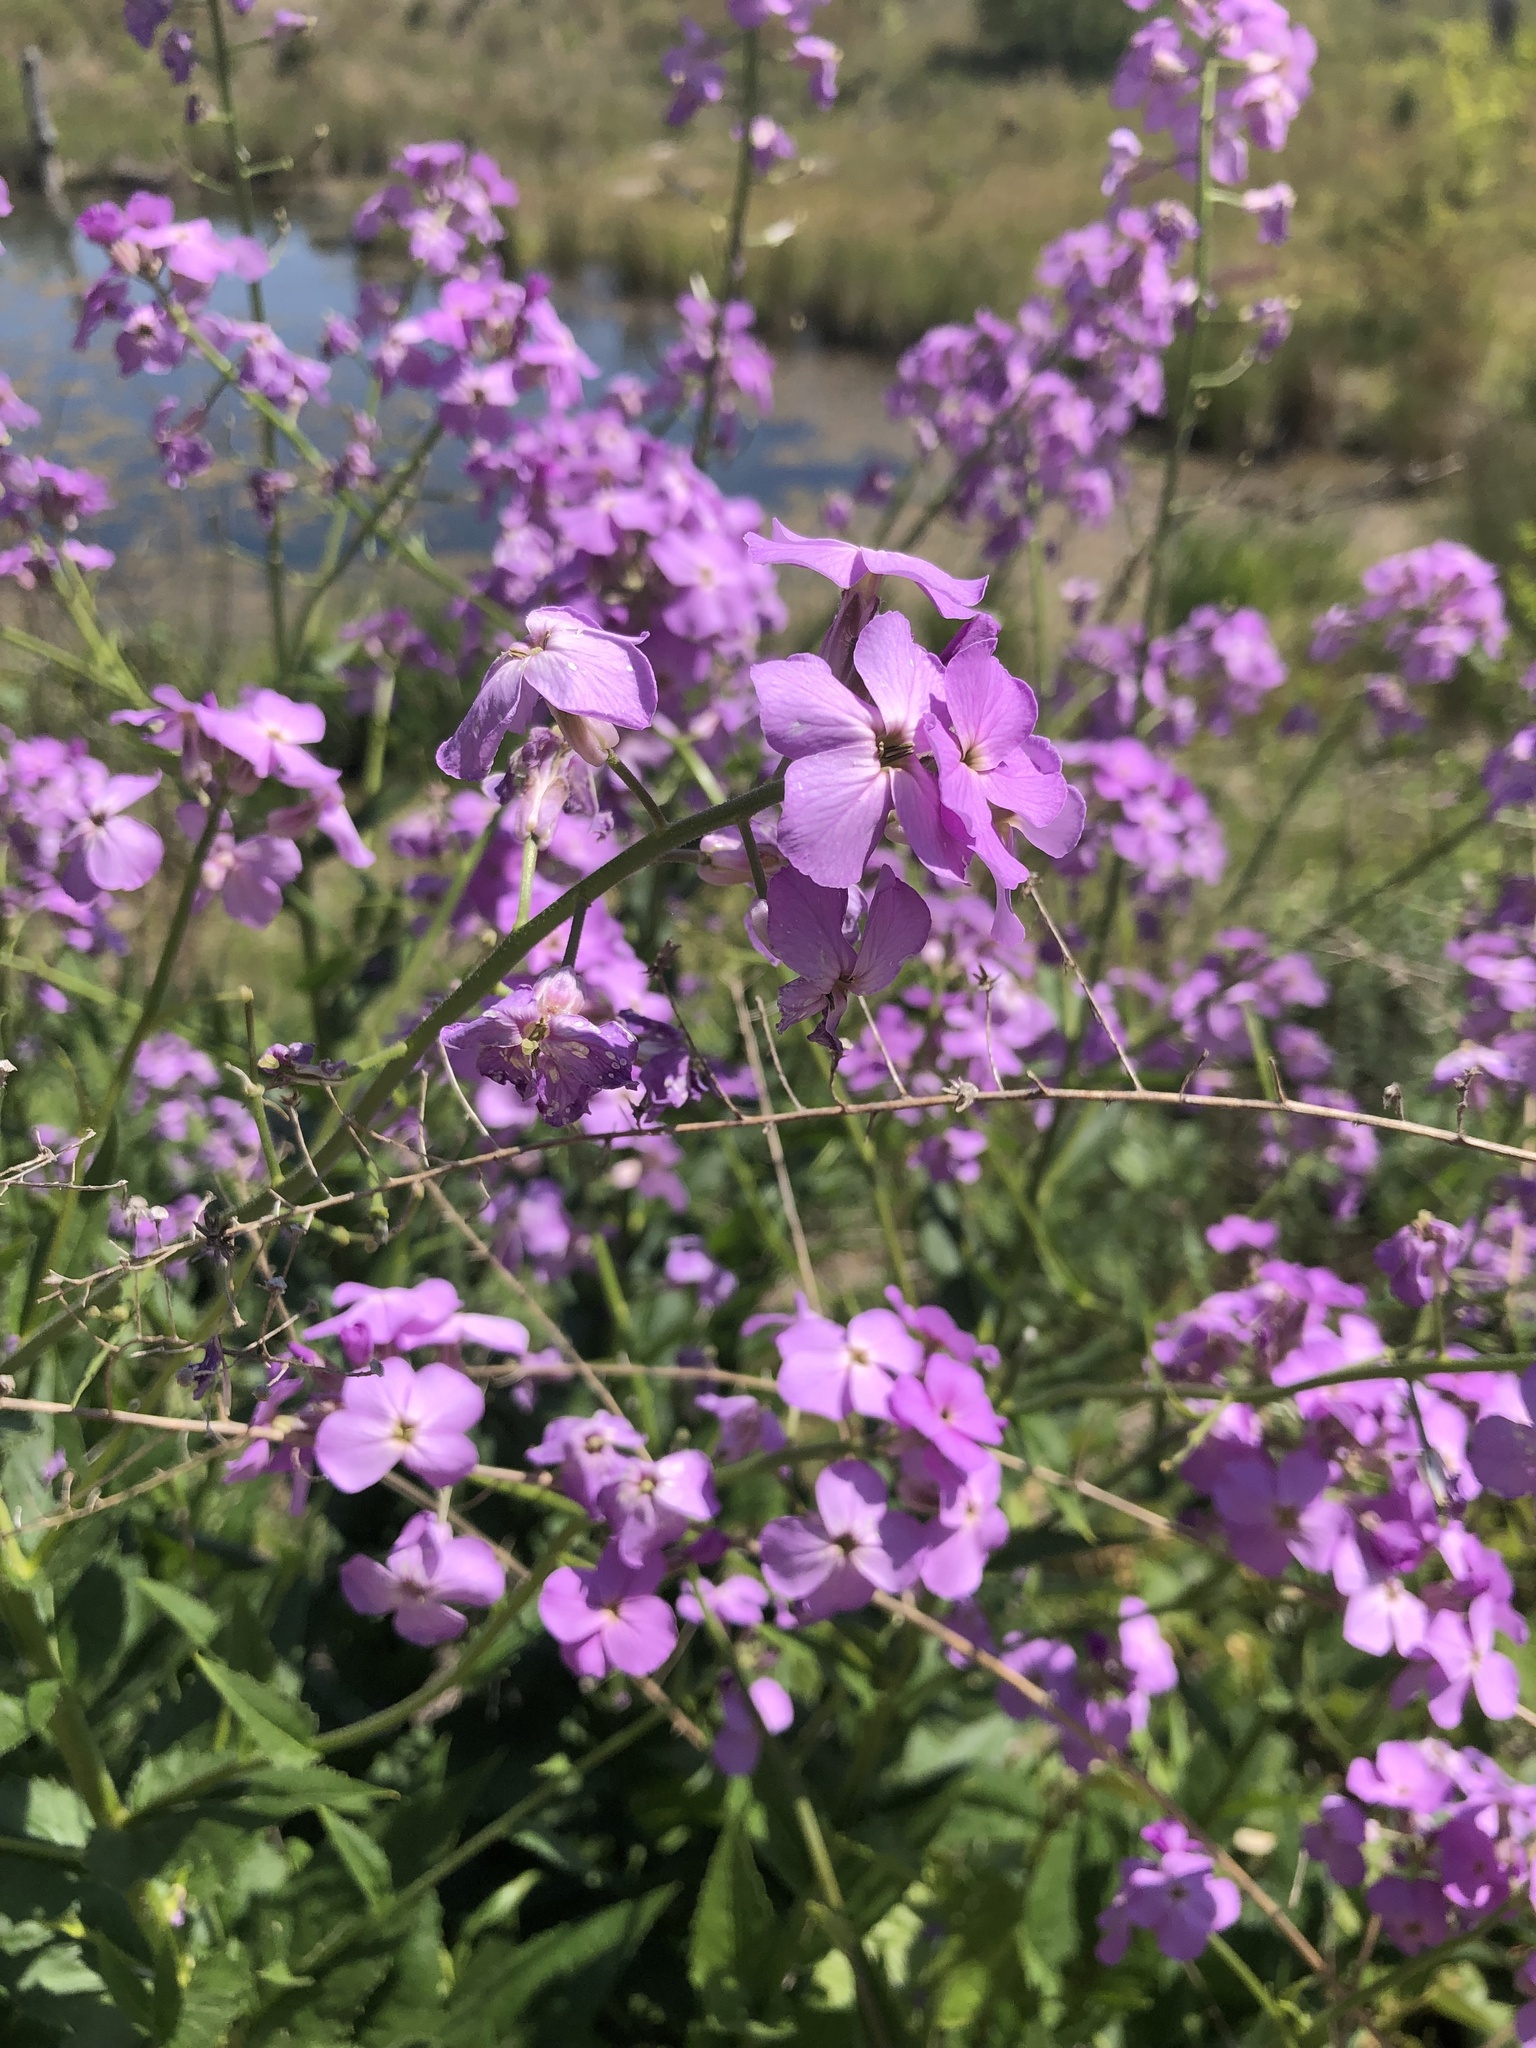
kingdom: Plantae
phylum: Tracheophyta
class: Magnoliopsida
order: Brassicales
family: Brassicaceae
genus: Hesperis
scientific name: Hesperis matronalis
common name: Dame's-violet
